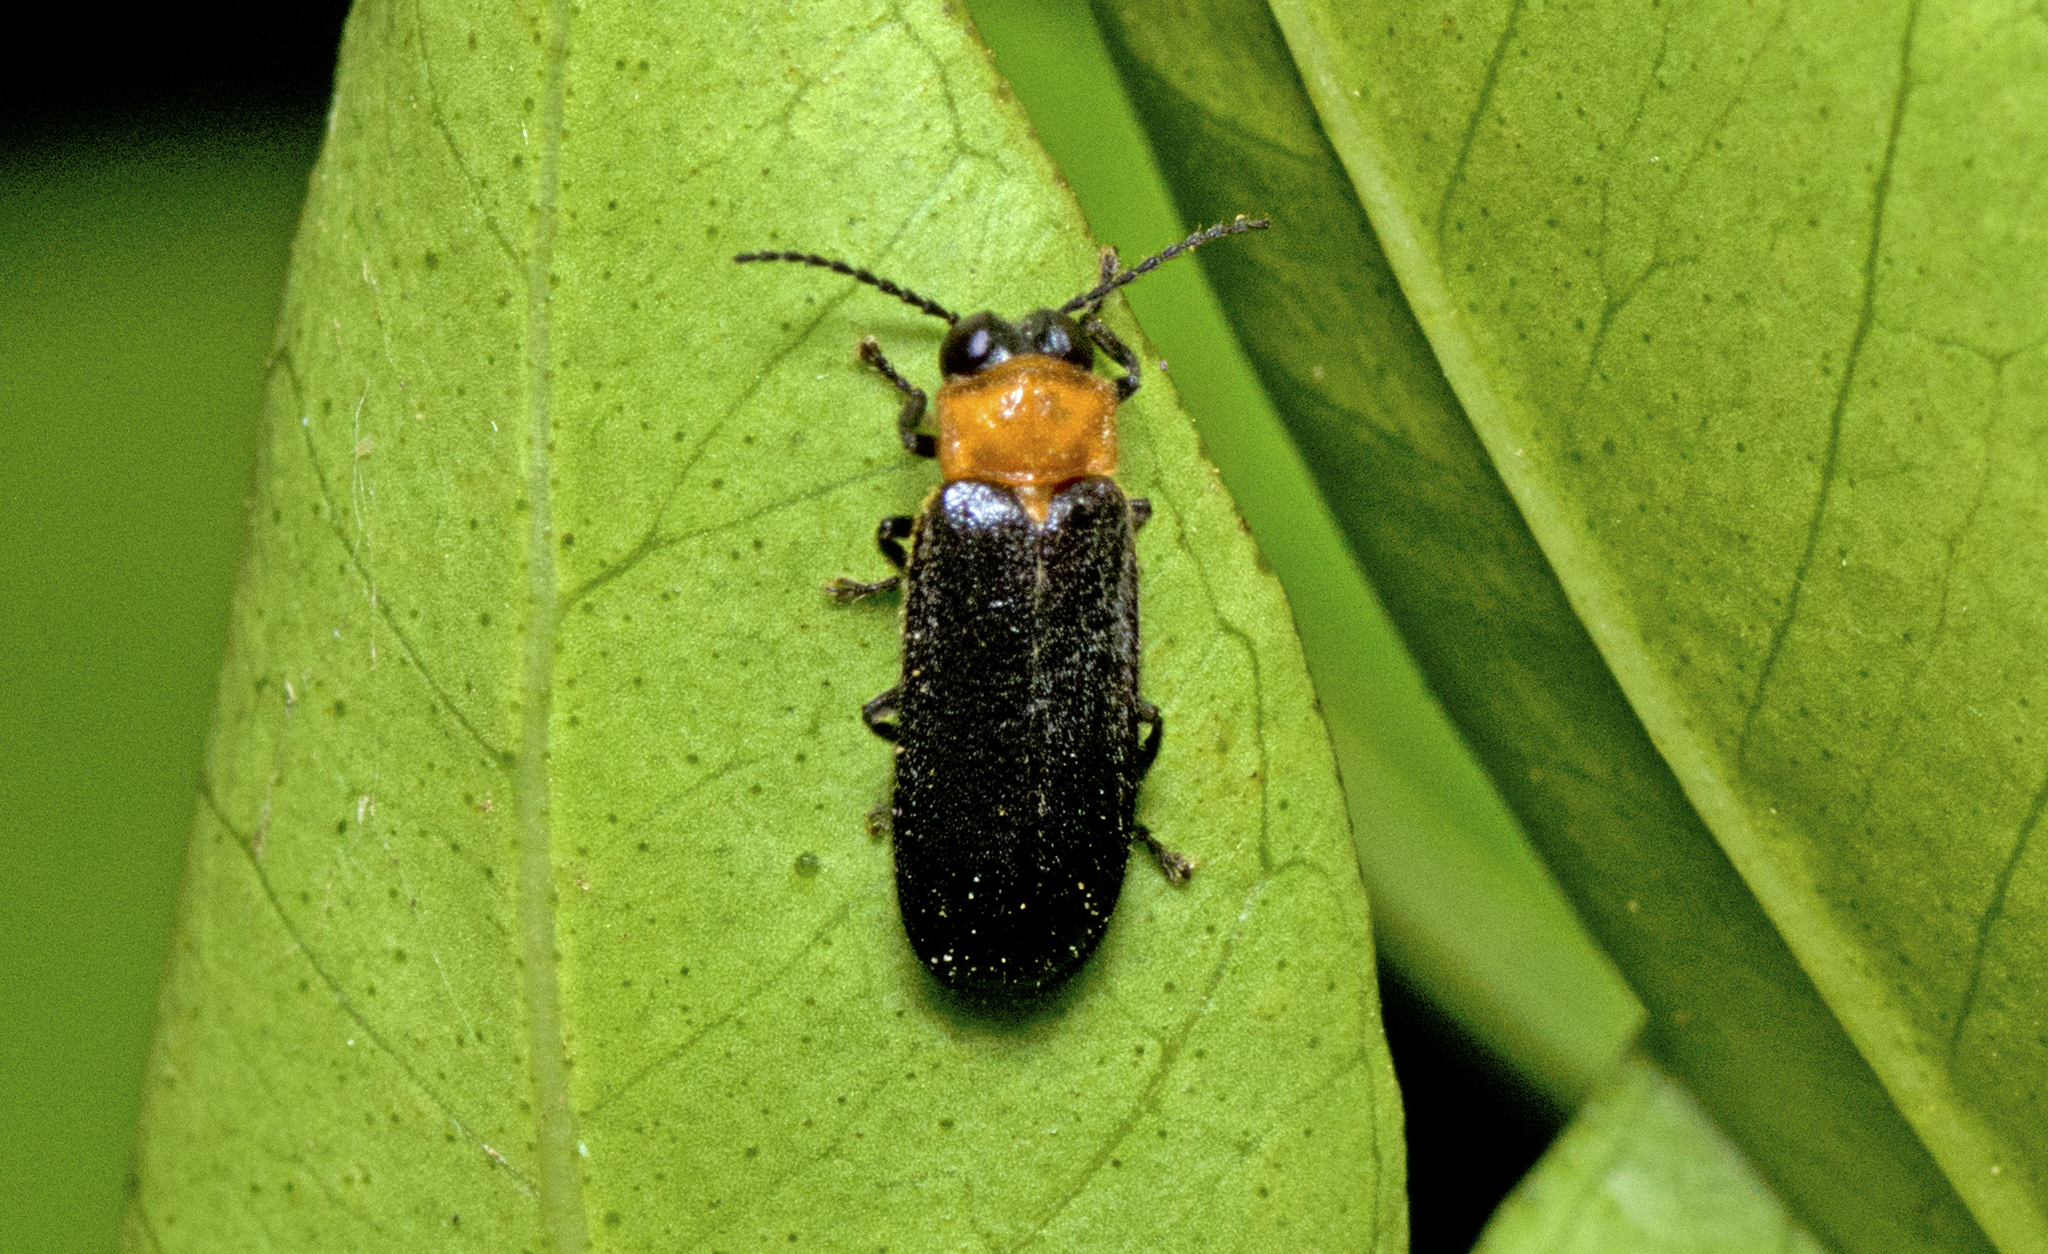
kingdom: Animalia
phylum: Arthropoda
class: Insecta
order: Coleoptera
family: Lampyridae
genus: Australoluciola
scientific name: Australoluciola nigra
